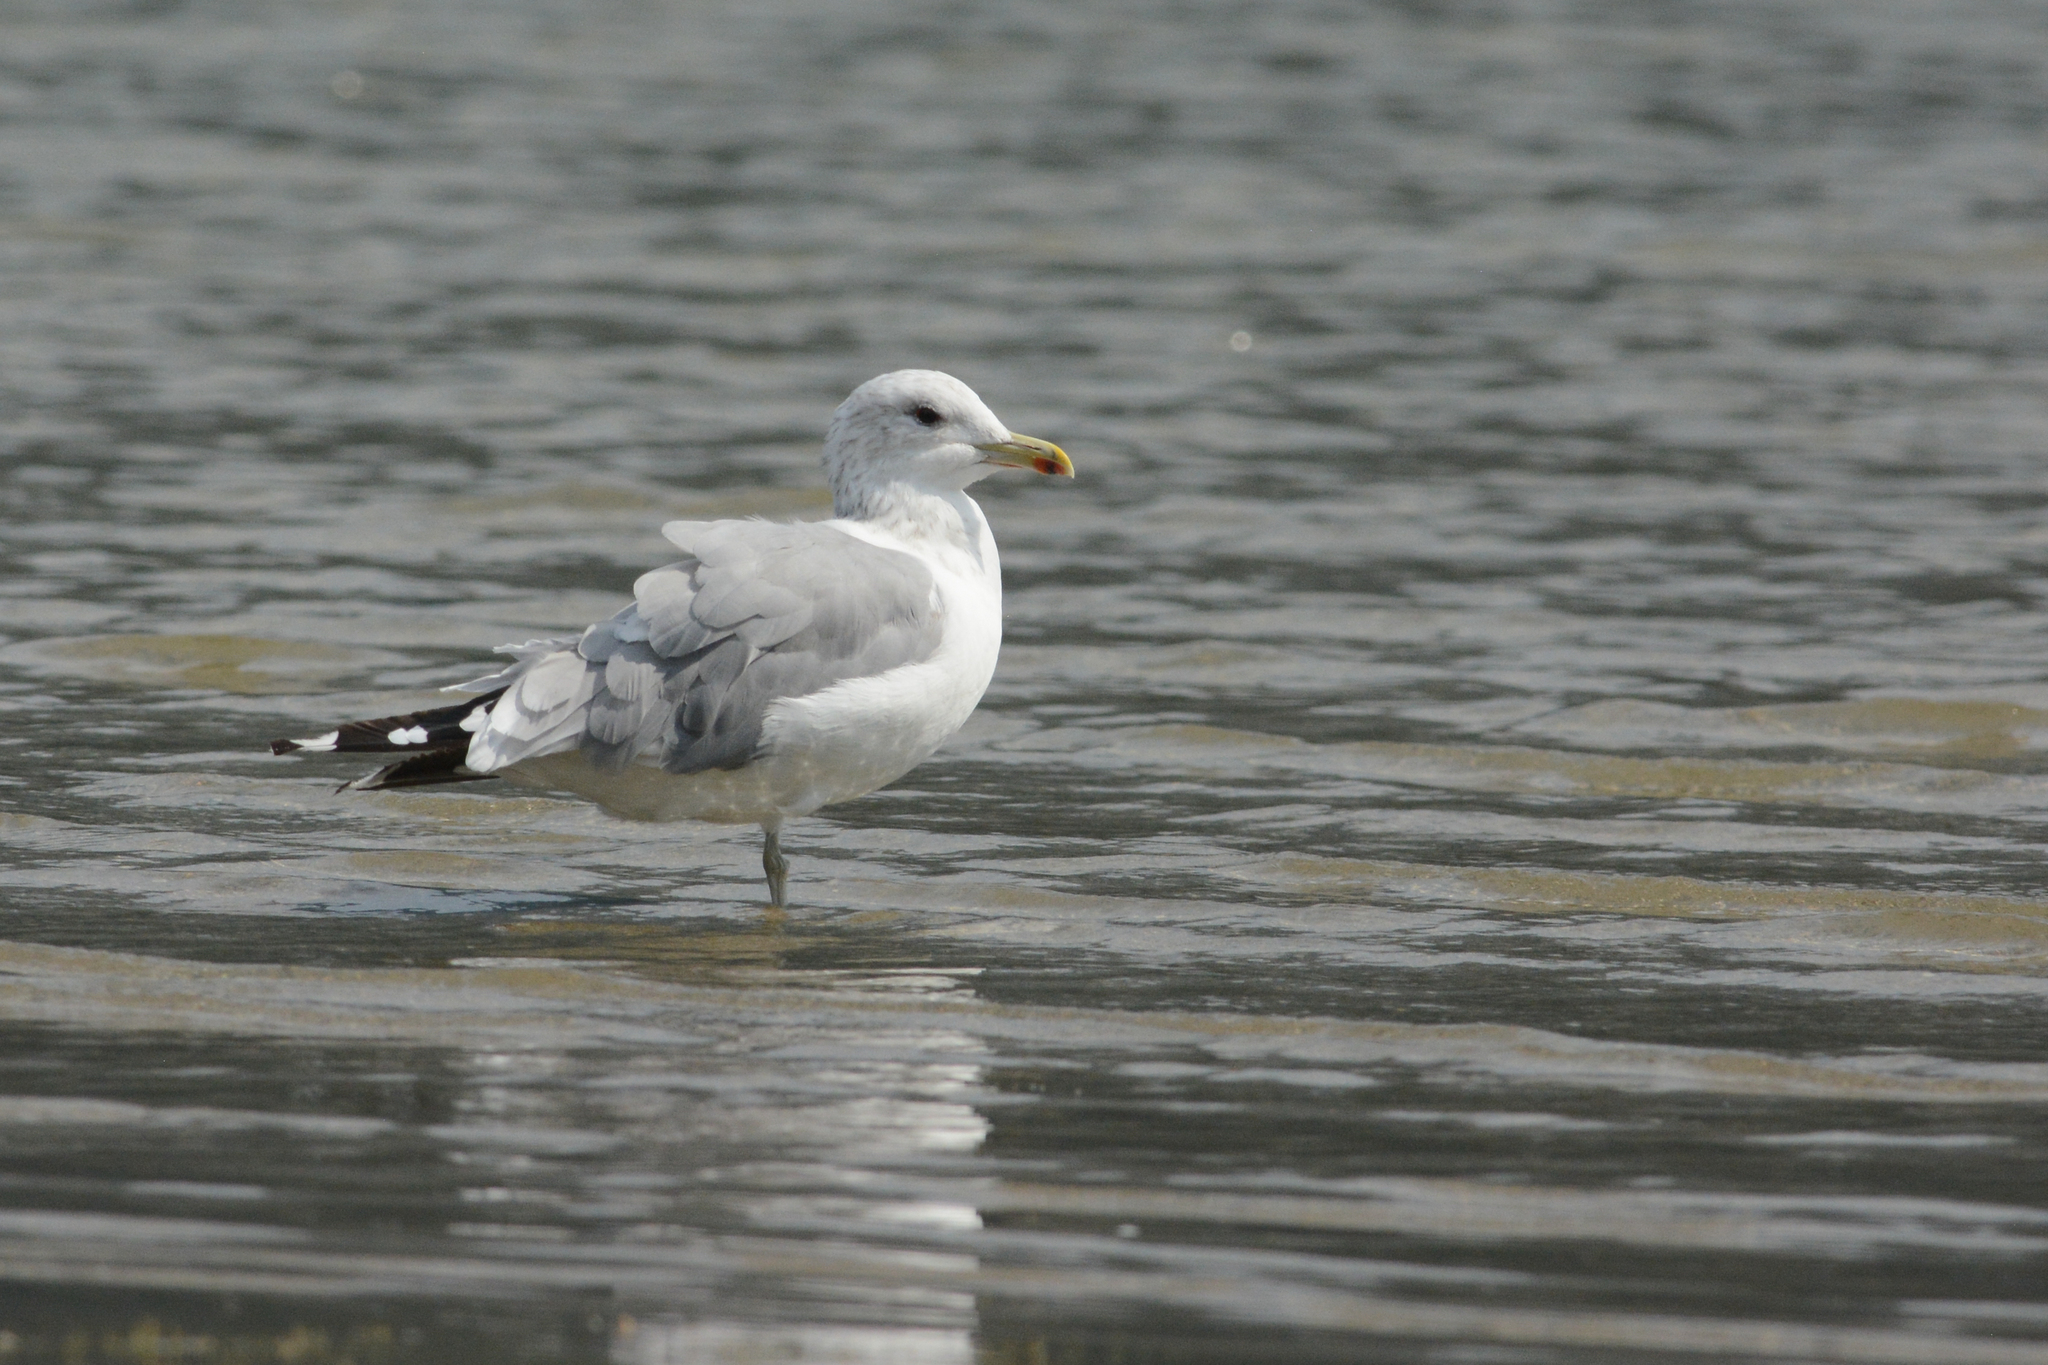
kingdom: Animalia
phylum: Chordata
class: Aves
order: Charadriiformes
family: Laridae
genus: Larus
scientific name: Larus californicus
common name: California gull
